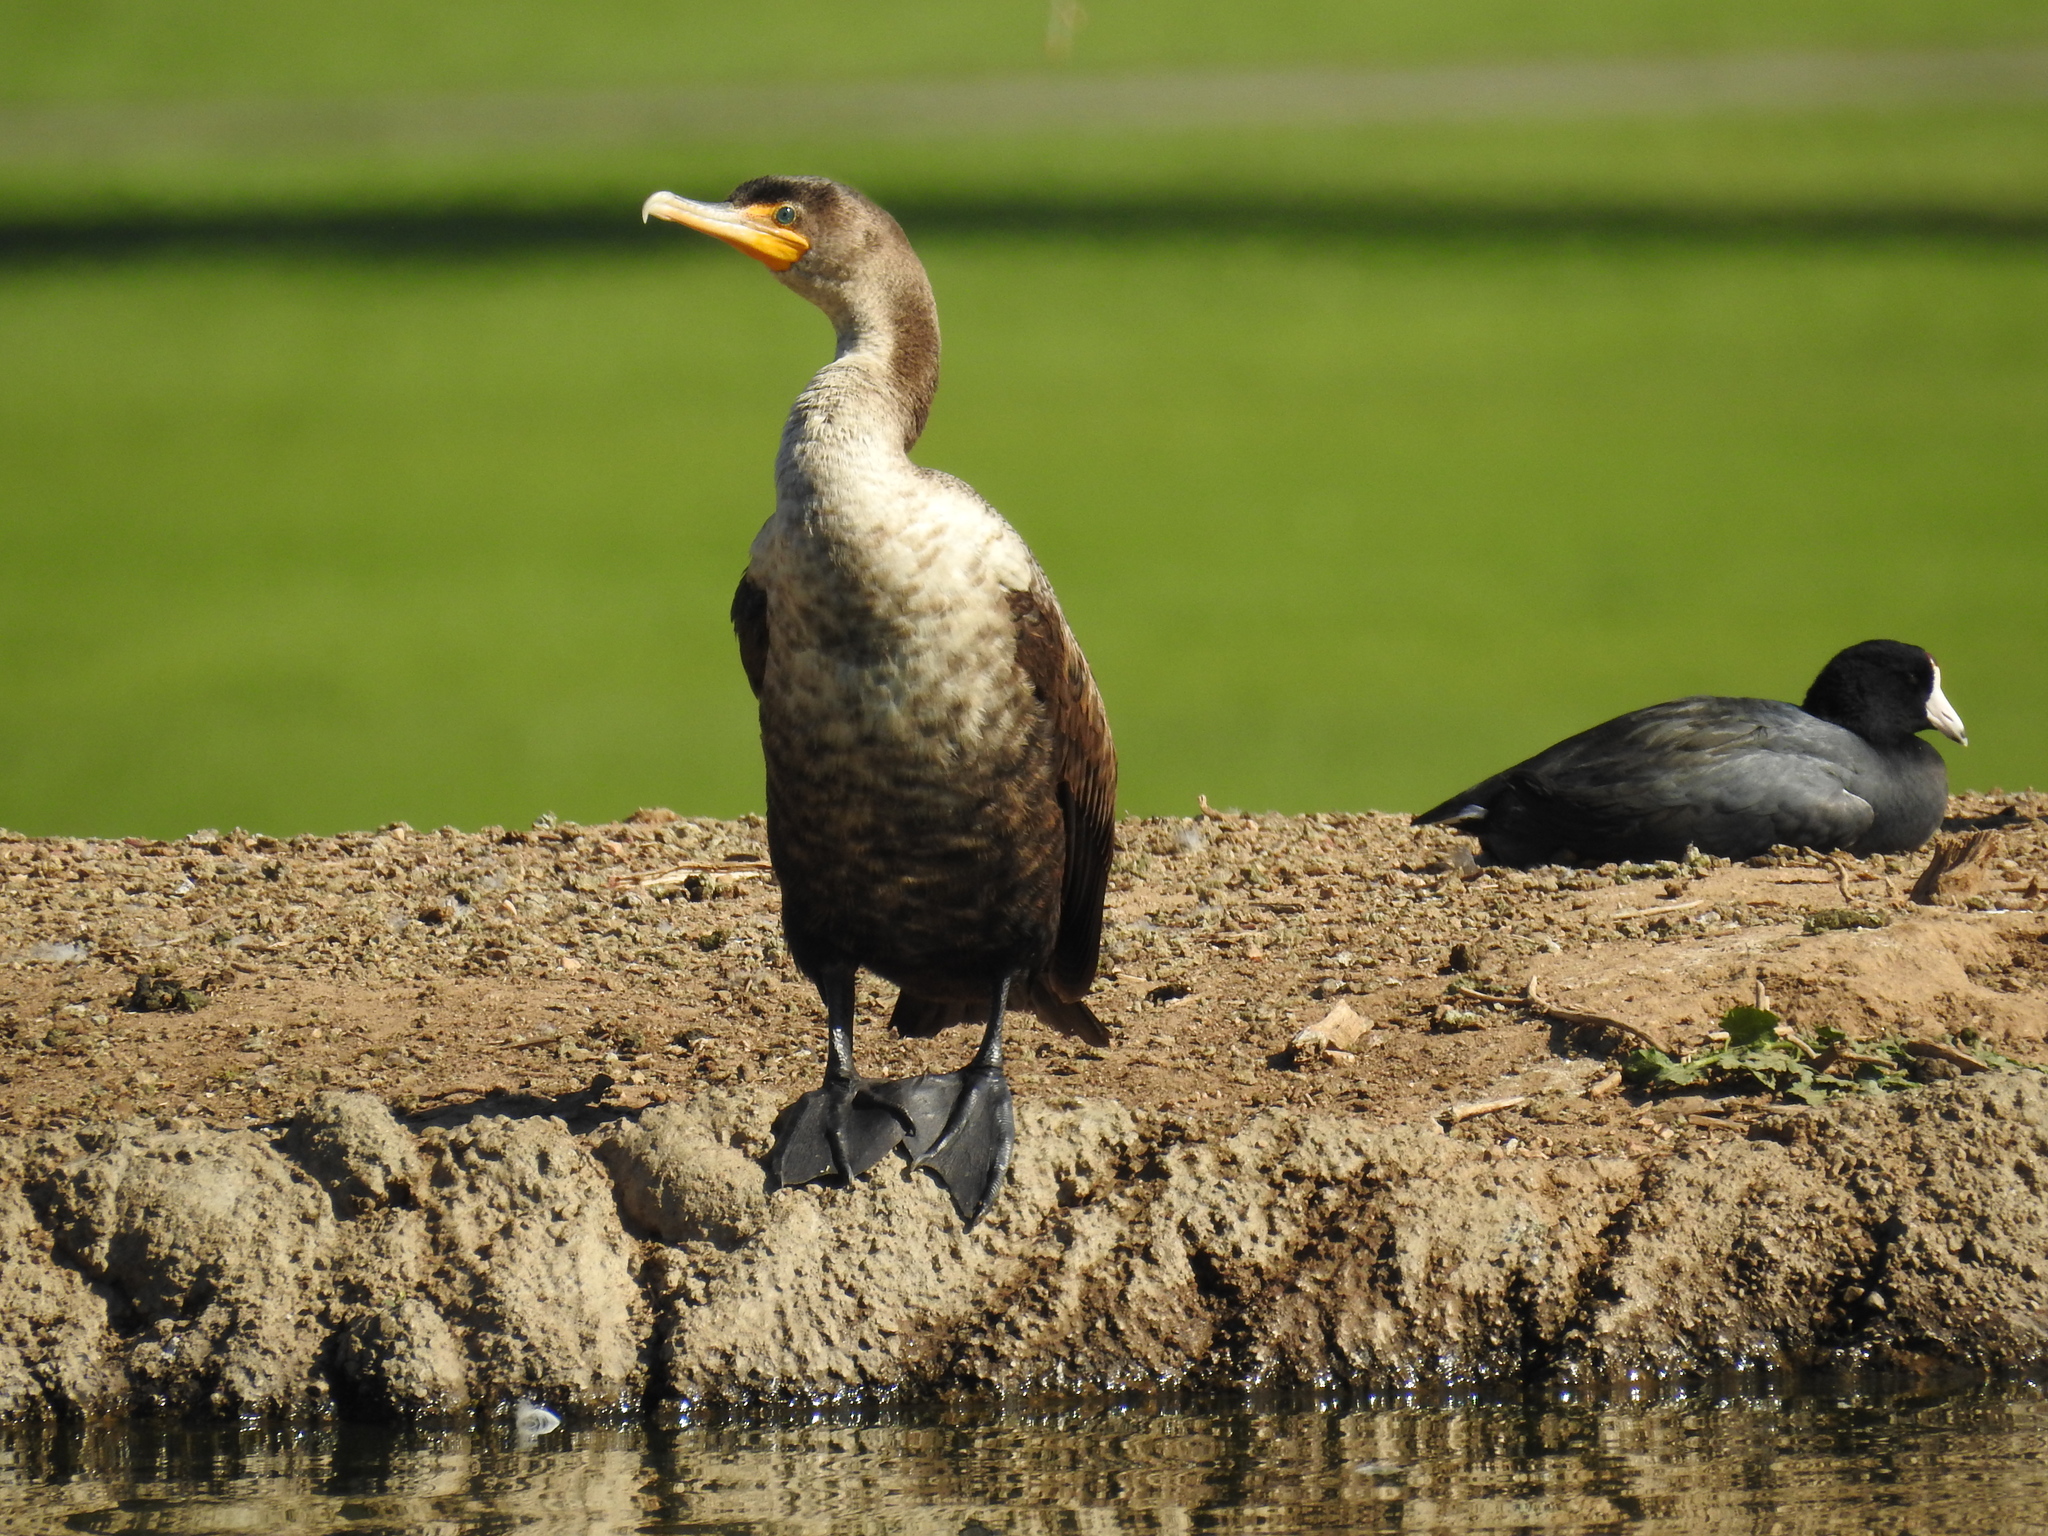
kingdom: Animalia
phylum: Chordata
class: Aves
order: Suliformes
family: Phalacrocoracidae
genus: Phalacrocorax
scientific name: Phalacrocorax auritus
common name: Double-crested cormorant
